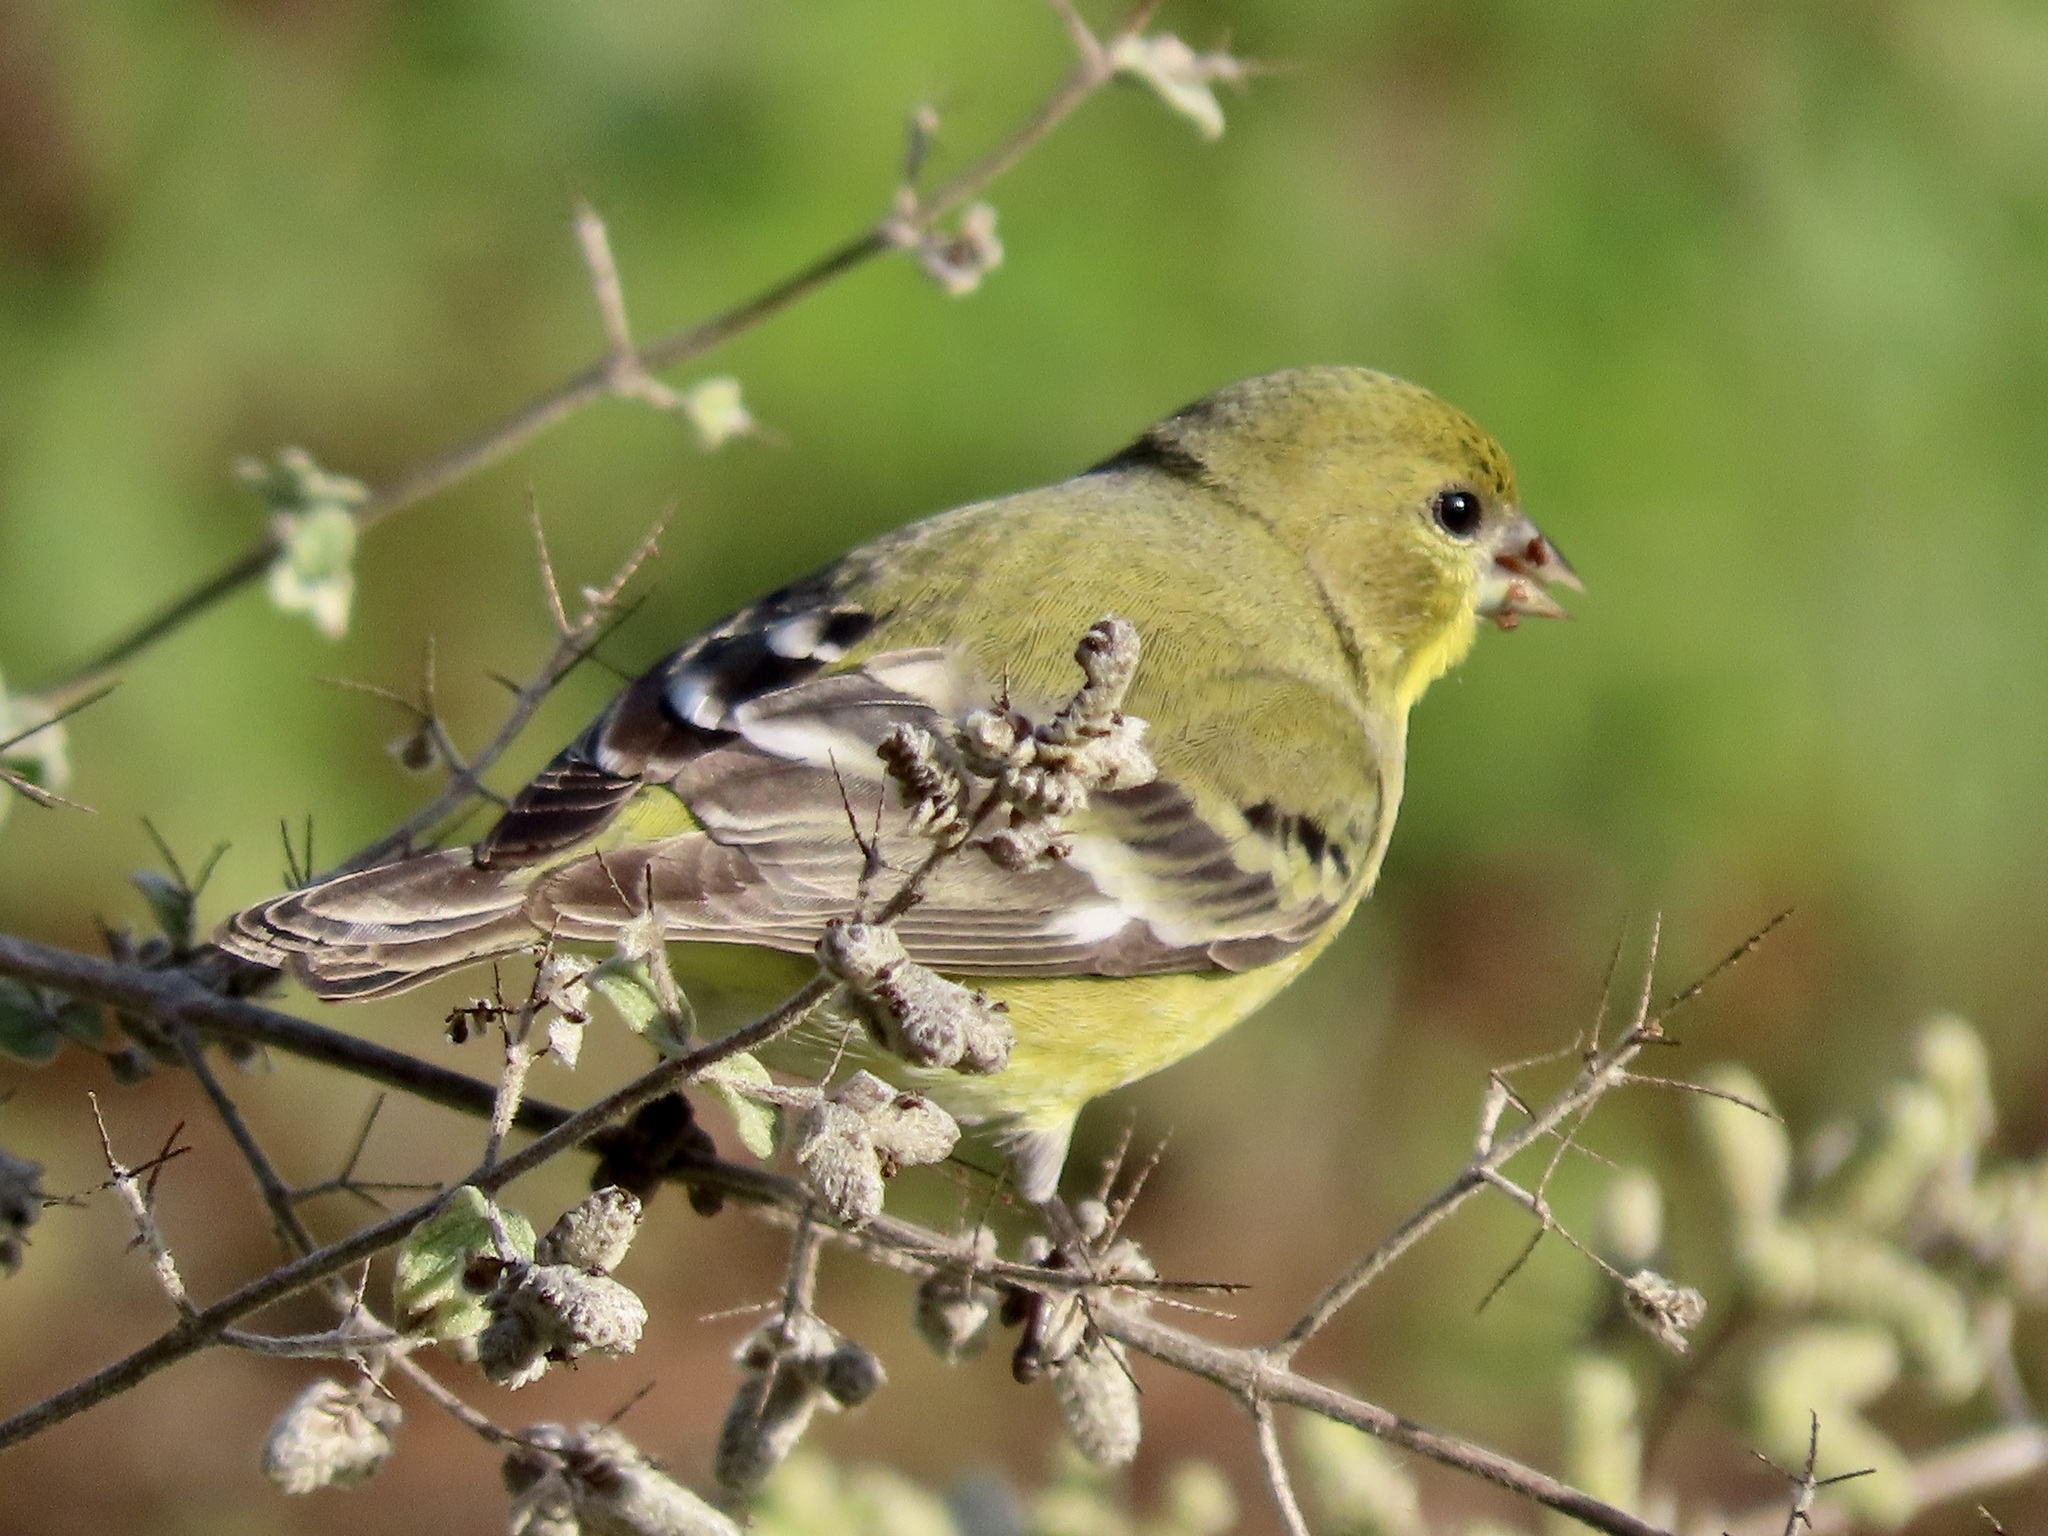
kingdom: Animalia
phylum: Chordata
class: Aves
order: Passeriformes
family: Fringillidae
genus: Spinus
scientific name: Spinus psaltria
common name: Lesser goldfinch
